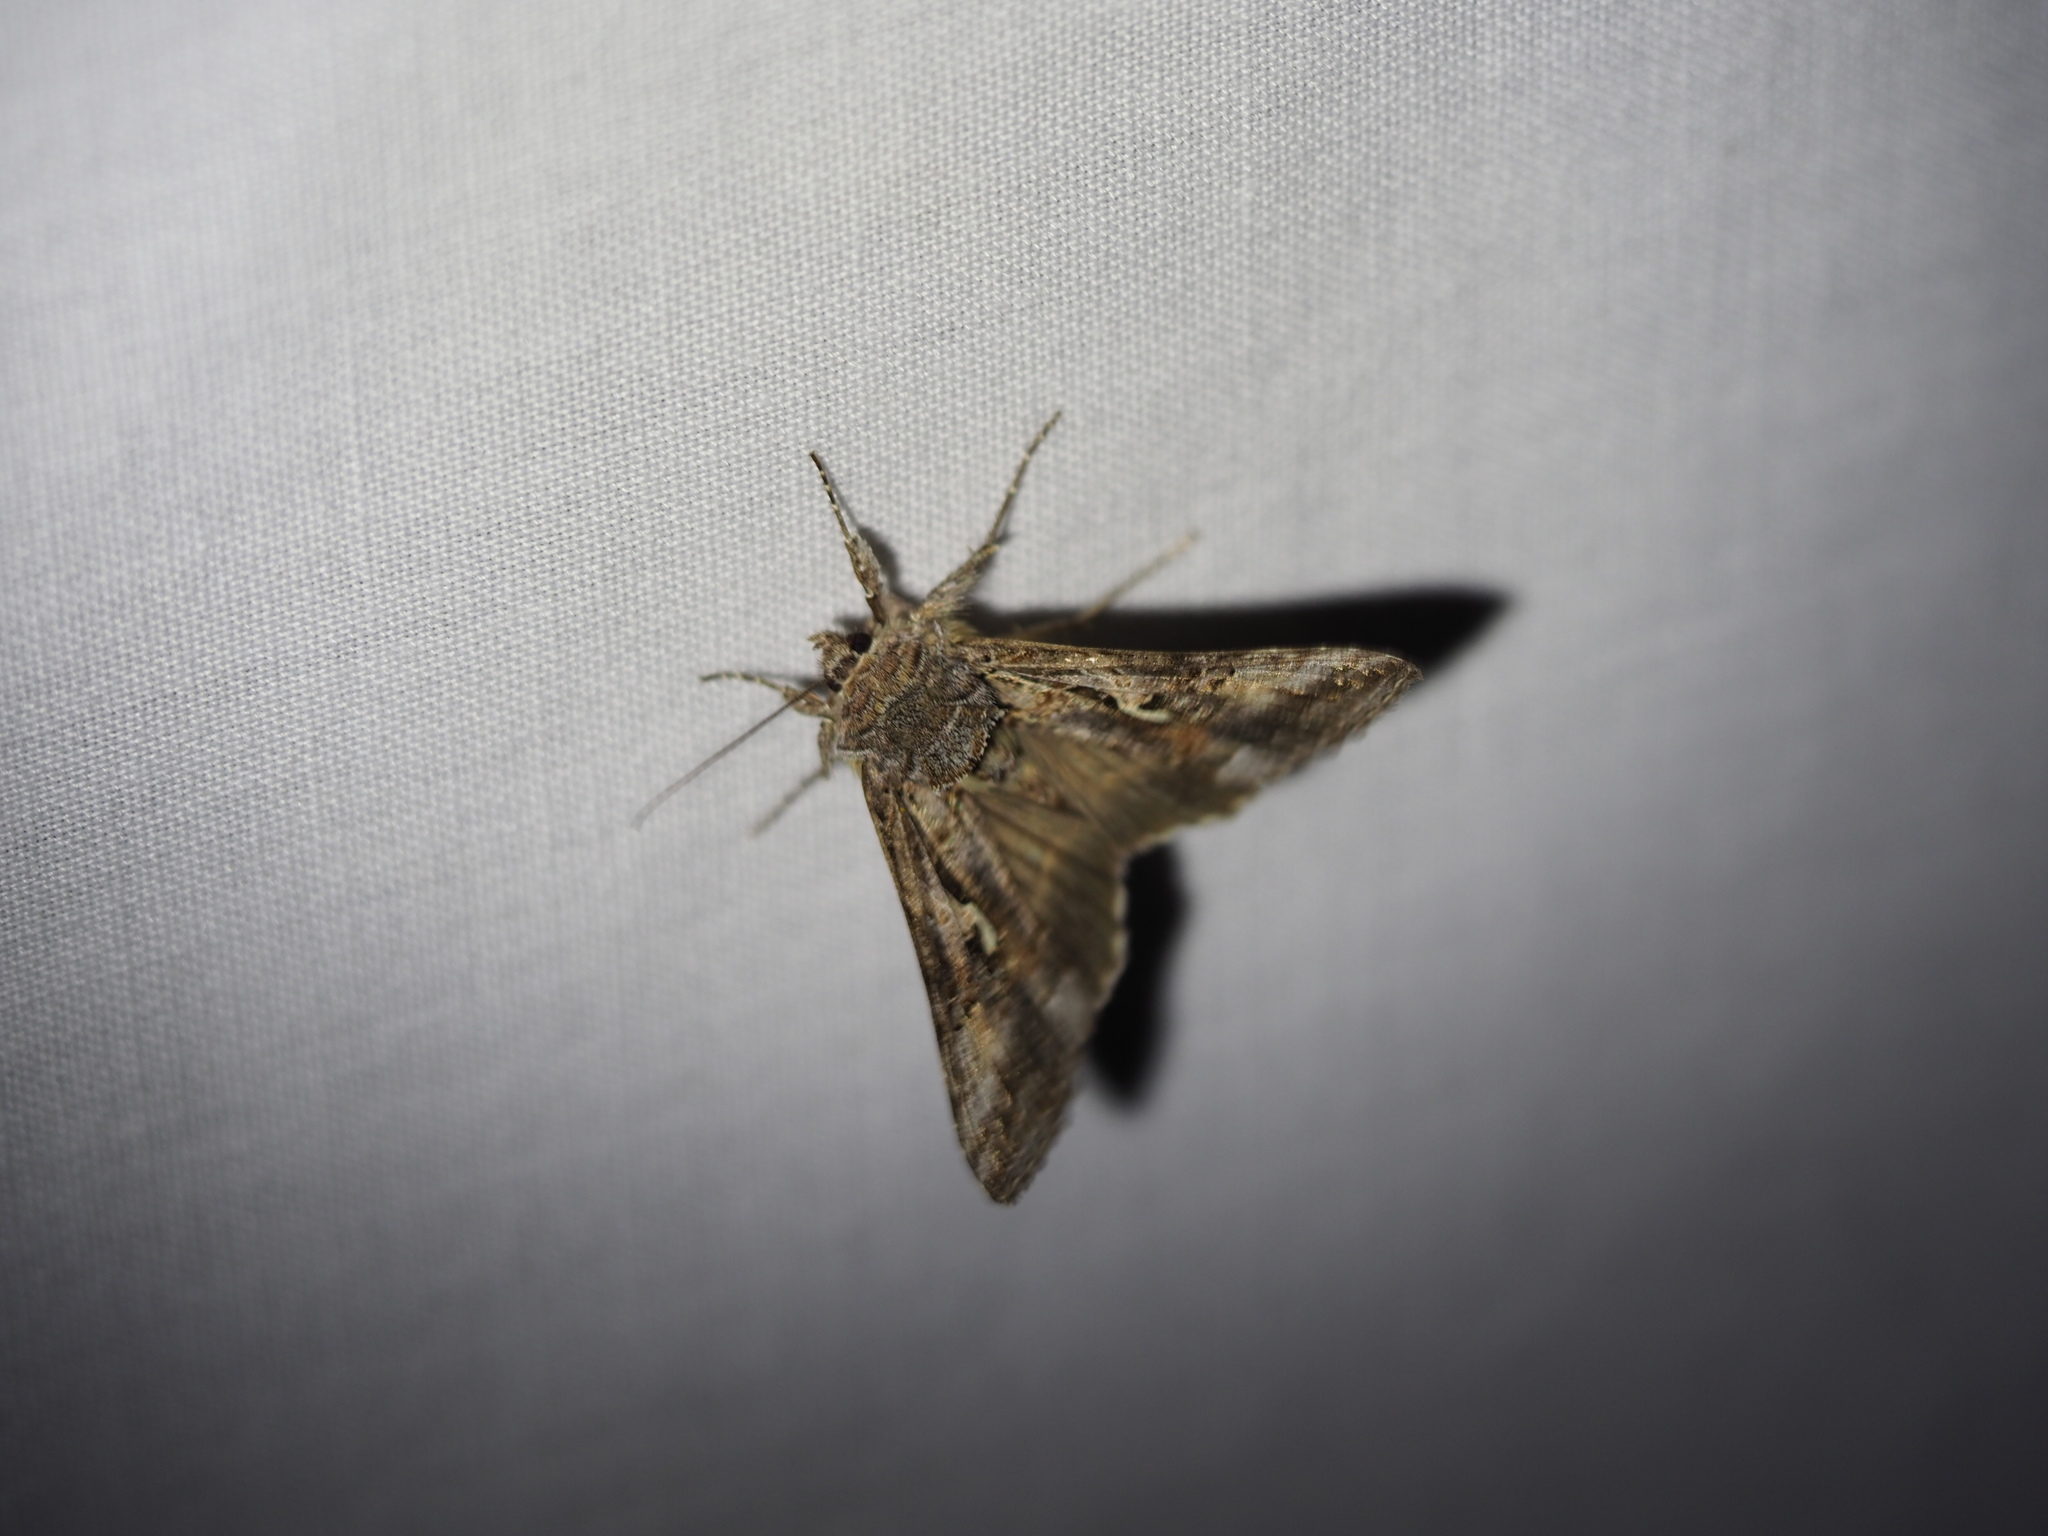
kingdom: Animalia
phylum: Arthropoda
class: Insecta
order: Lepidoptera
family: Noctuidae
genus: Autographa
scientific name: Autographa californica
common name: Alfalfa looper
